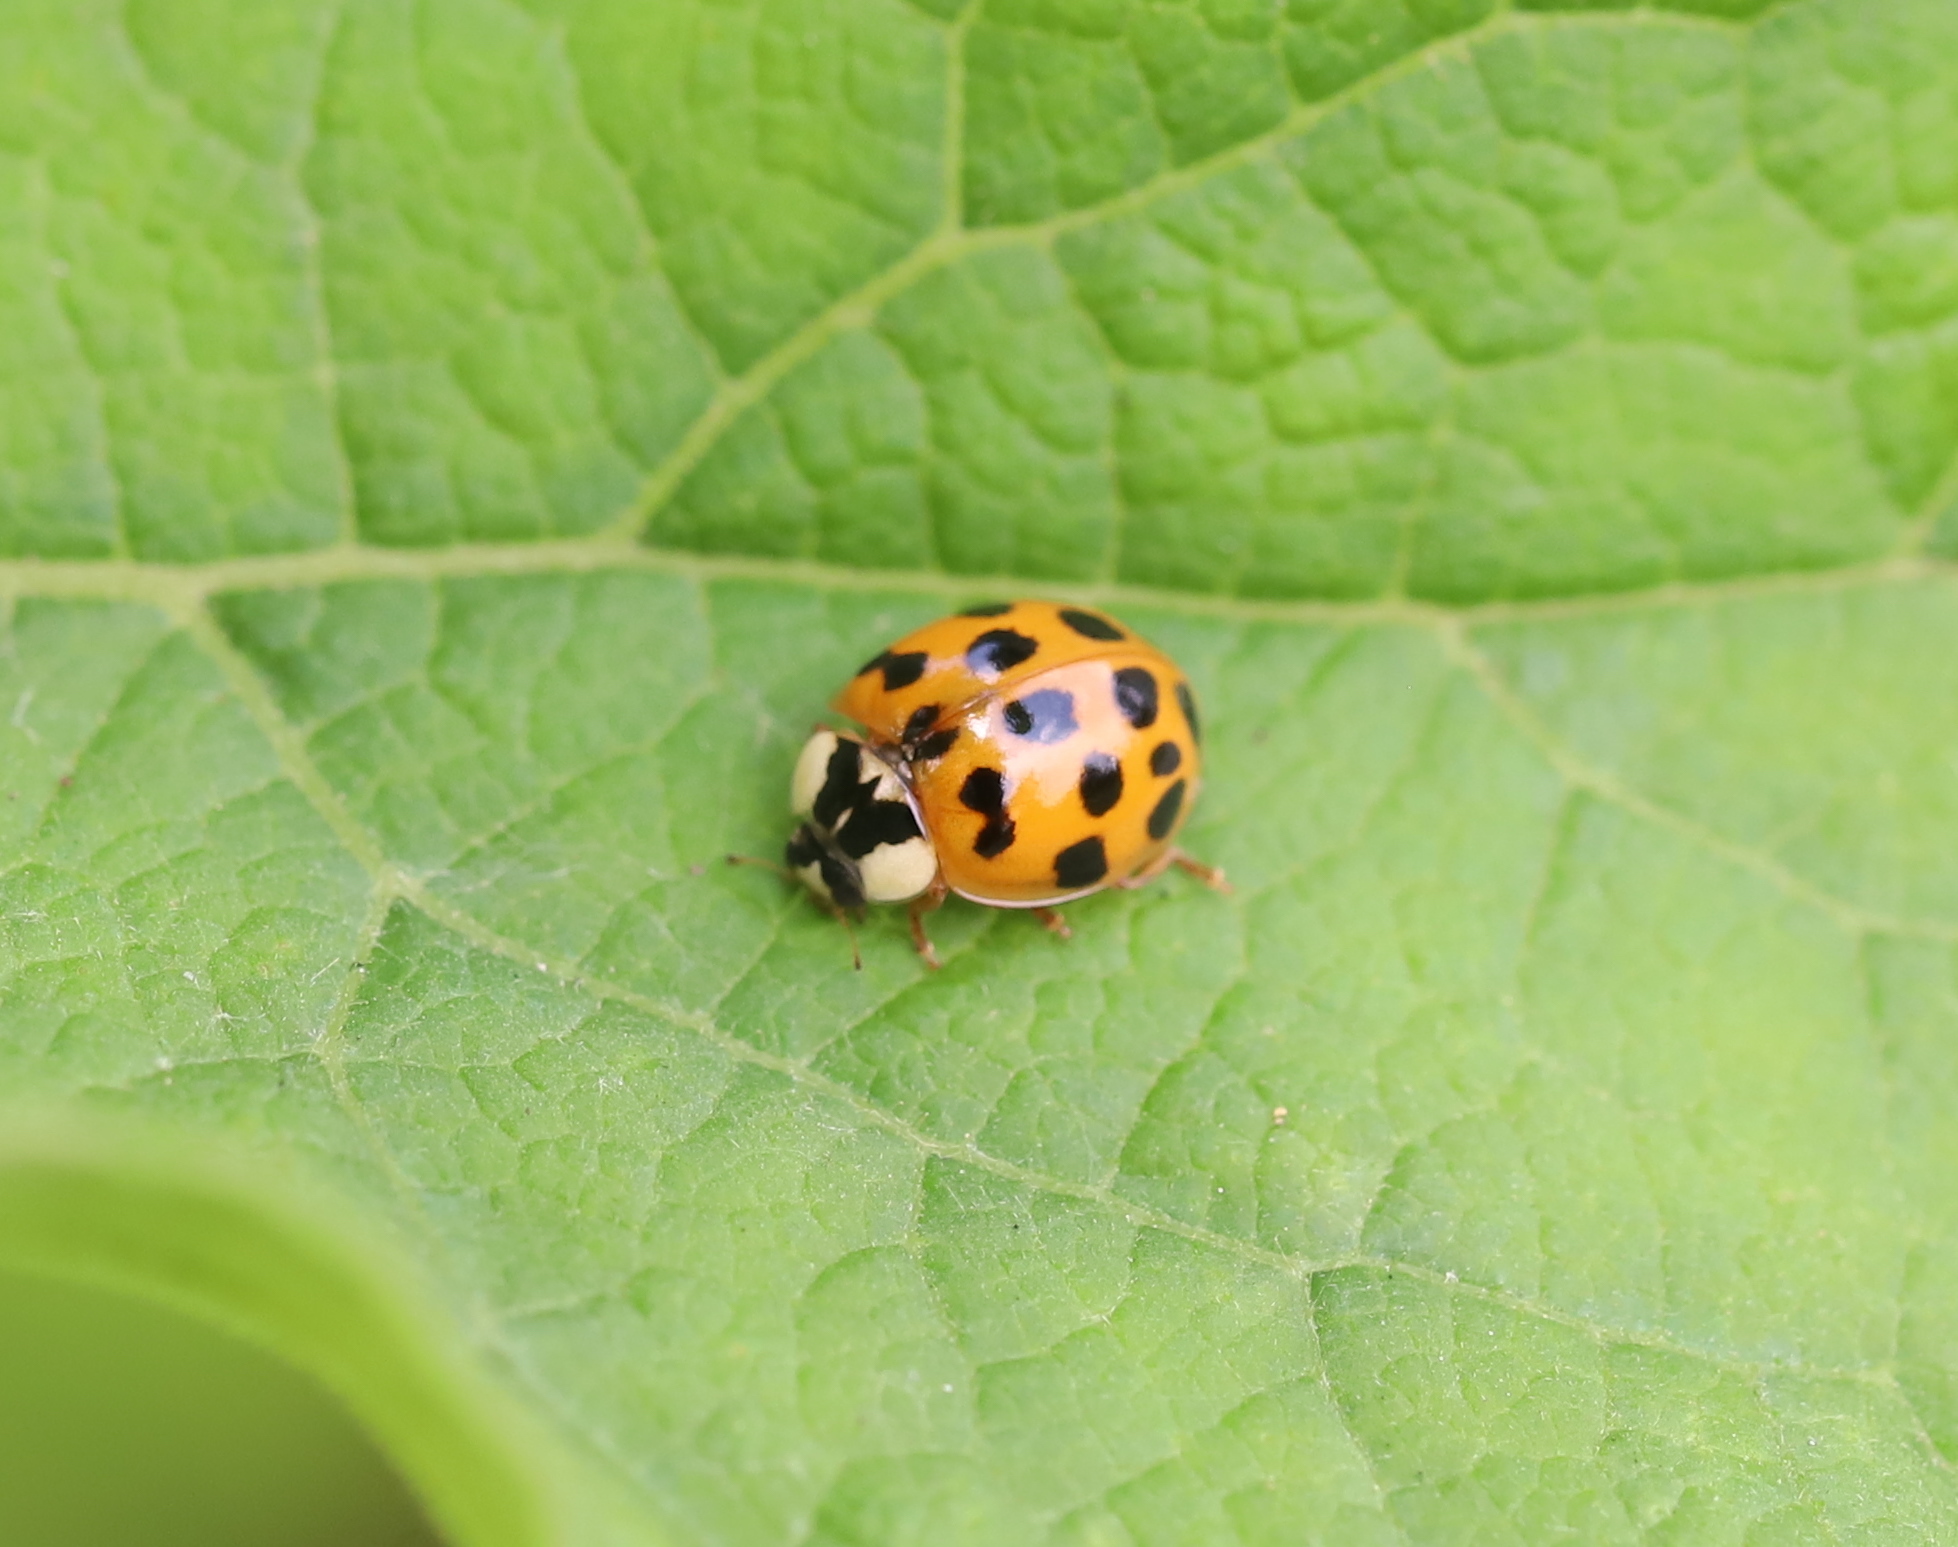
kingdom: Animalia
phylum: Arthropoda
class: Insecta
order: Coleoptera
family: Coccinellidae
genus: Harmonia
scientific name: Harmonia axyridis
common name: Harlequin ladybird
